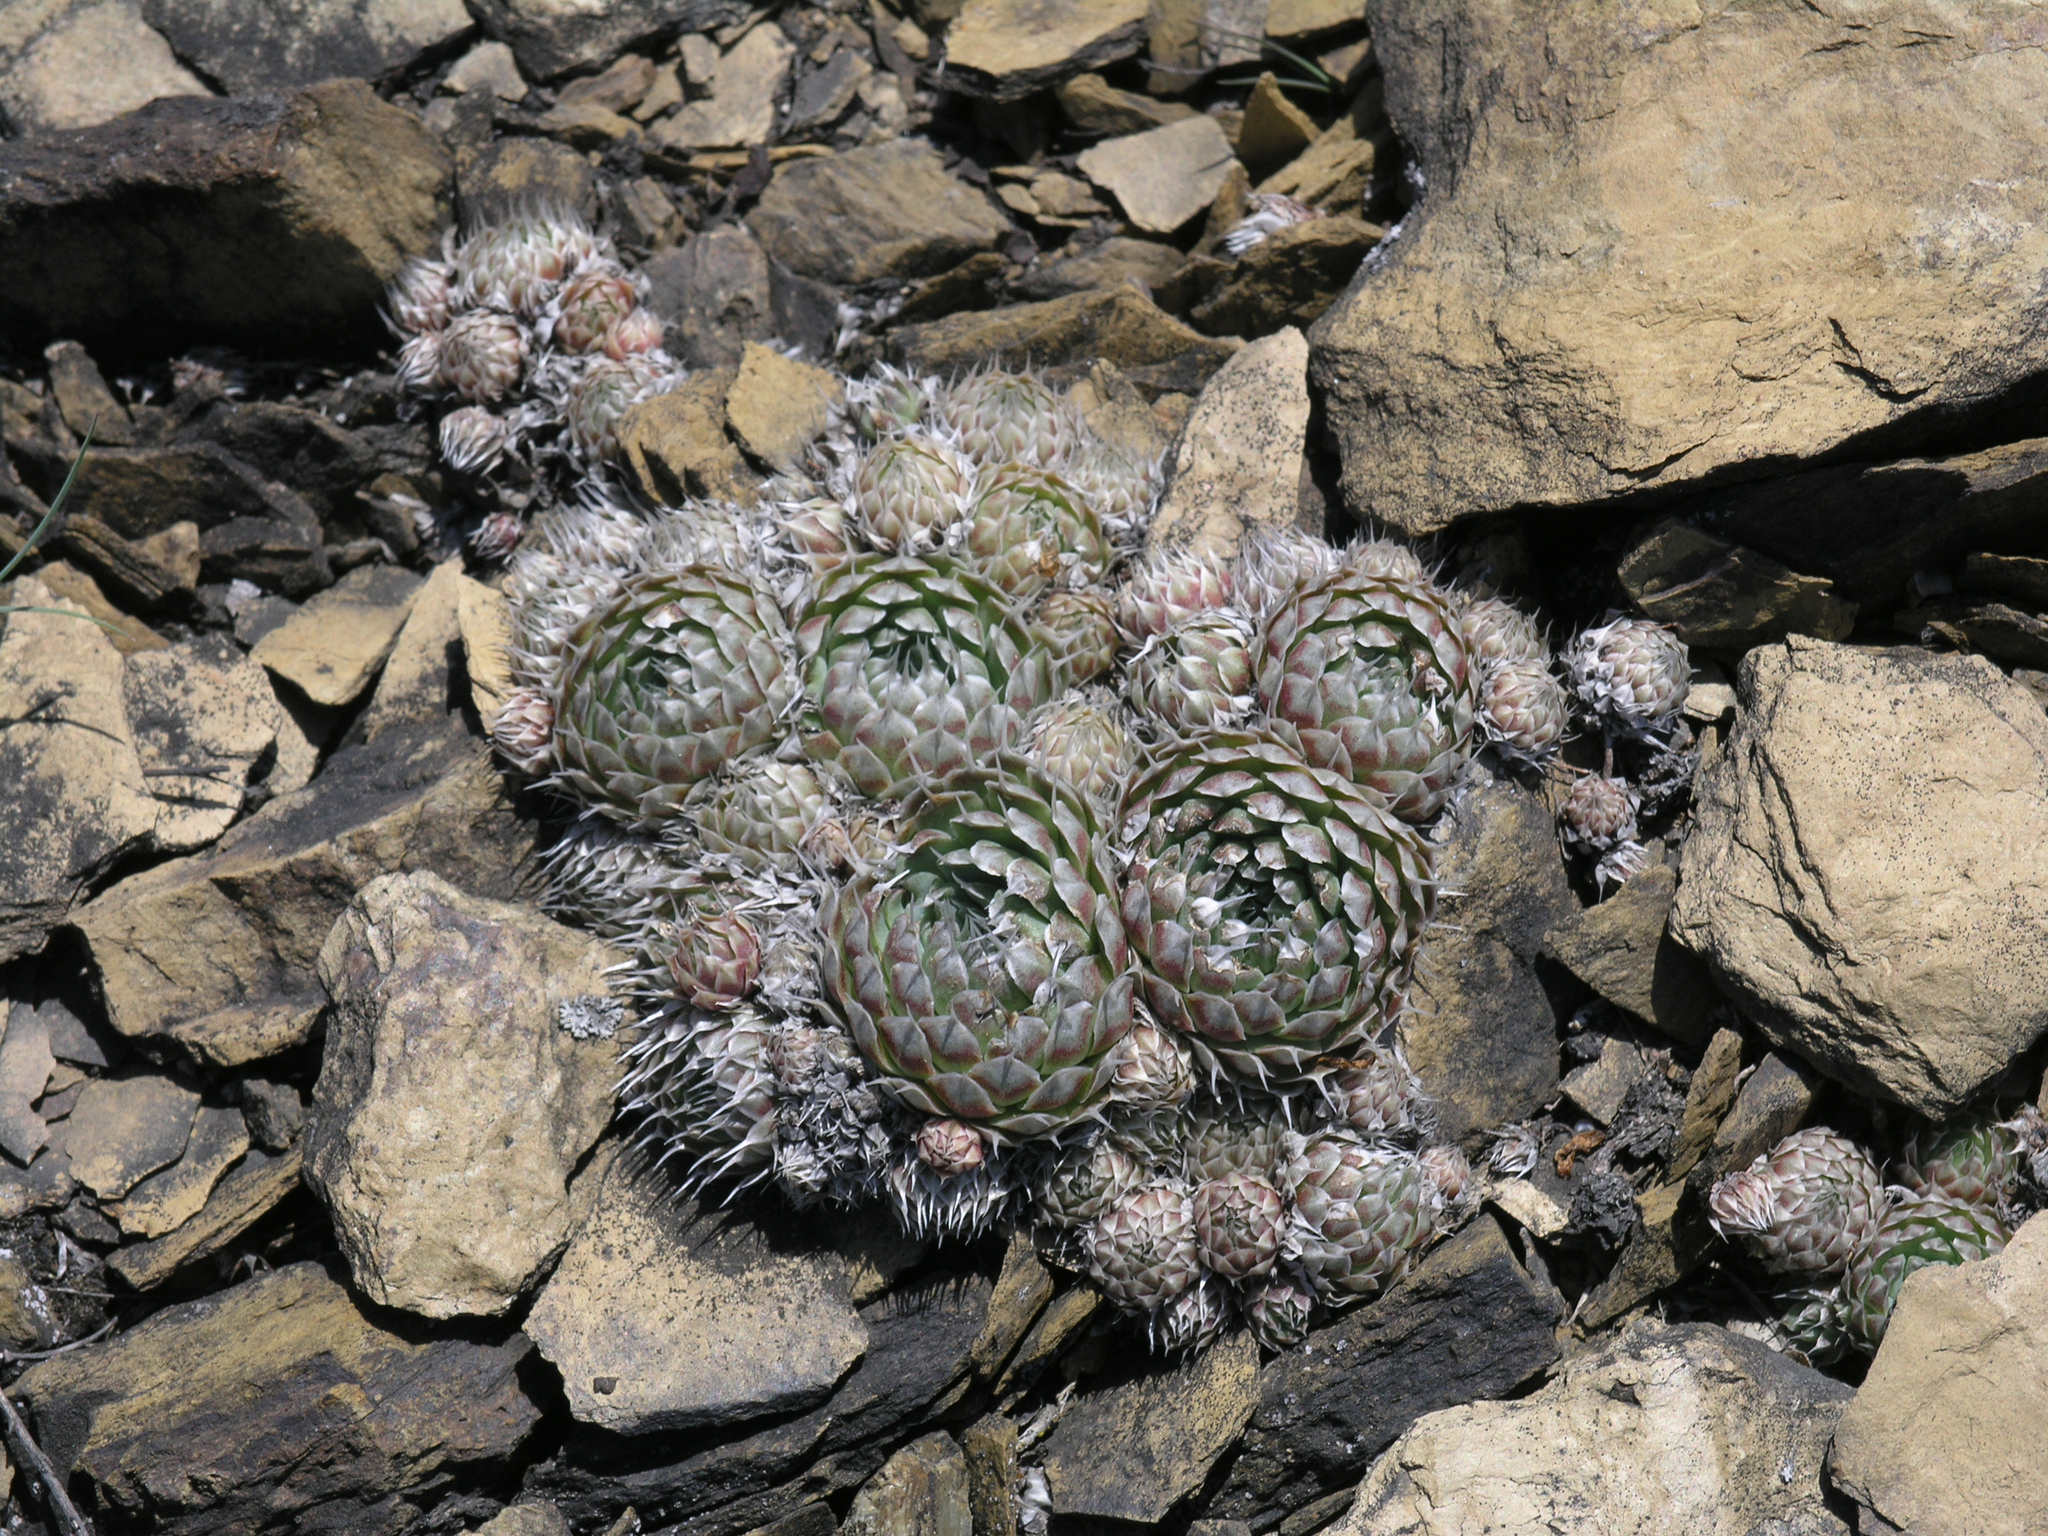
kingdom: Plantae
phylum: Tracheophyta
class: Magnoliopsida
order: Saxifragales
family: Crassulaceae
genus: Orostachys
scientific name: Orostachys spinosa
